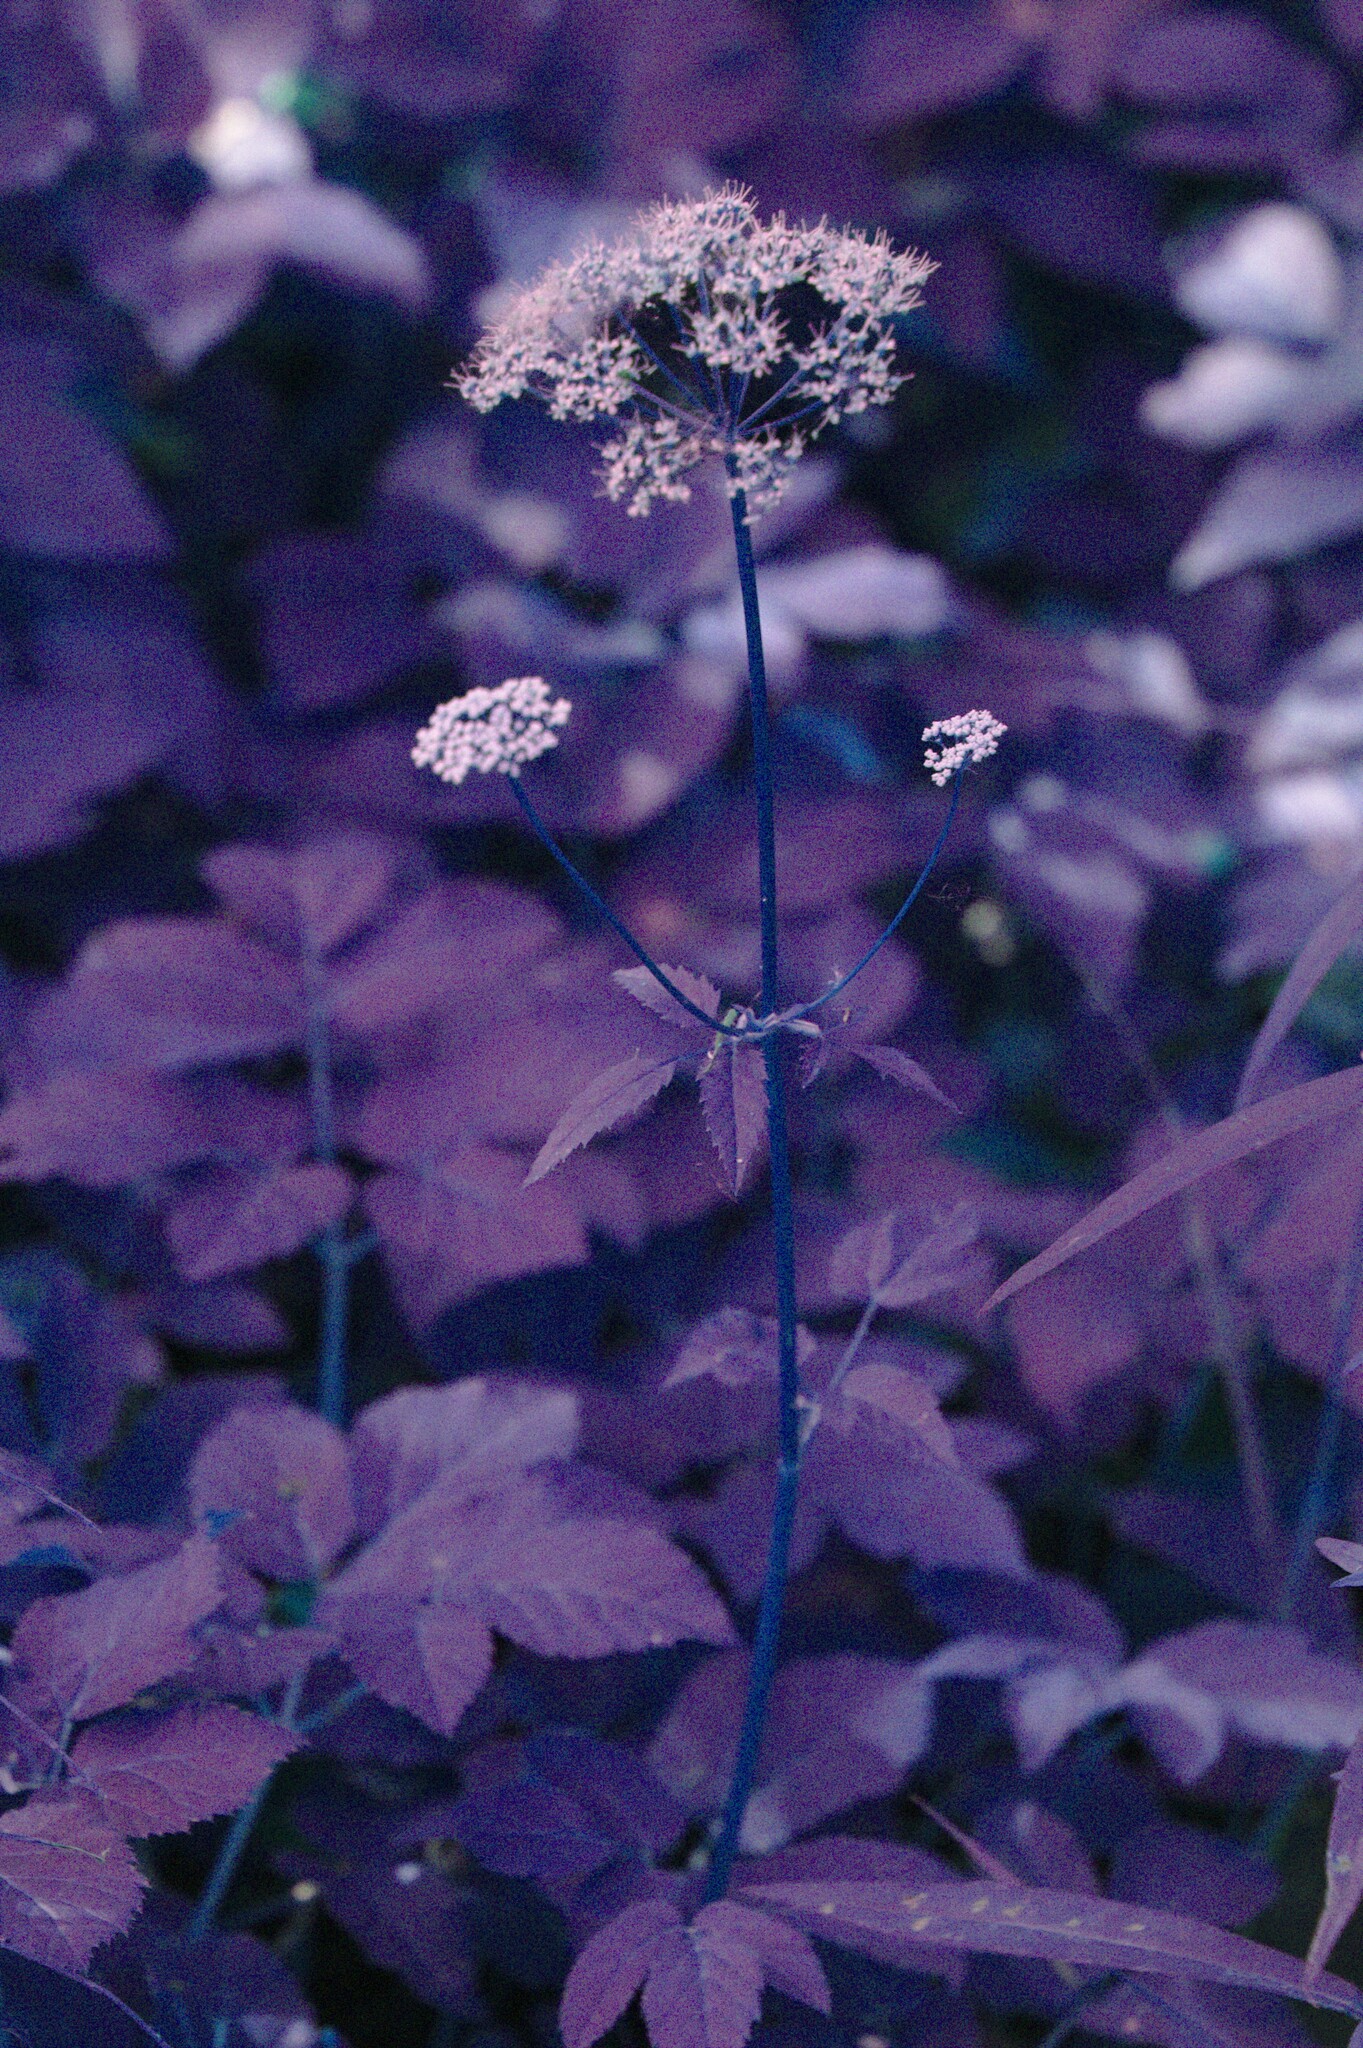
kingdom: Plantae
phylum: Tracheophyta
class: Magnoliopsida
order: Apiales
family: Apiaceae
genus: Aegopodium
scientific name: Aegopodium podagraria
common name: Ground-elder
